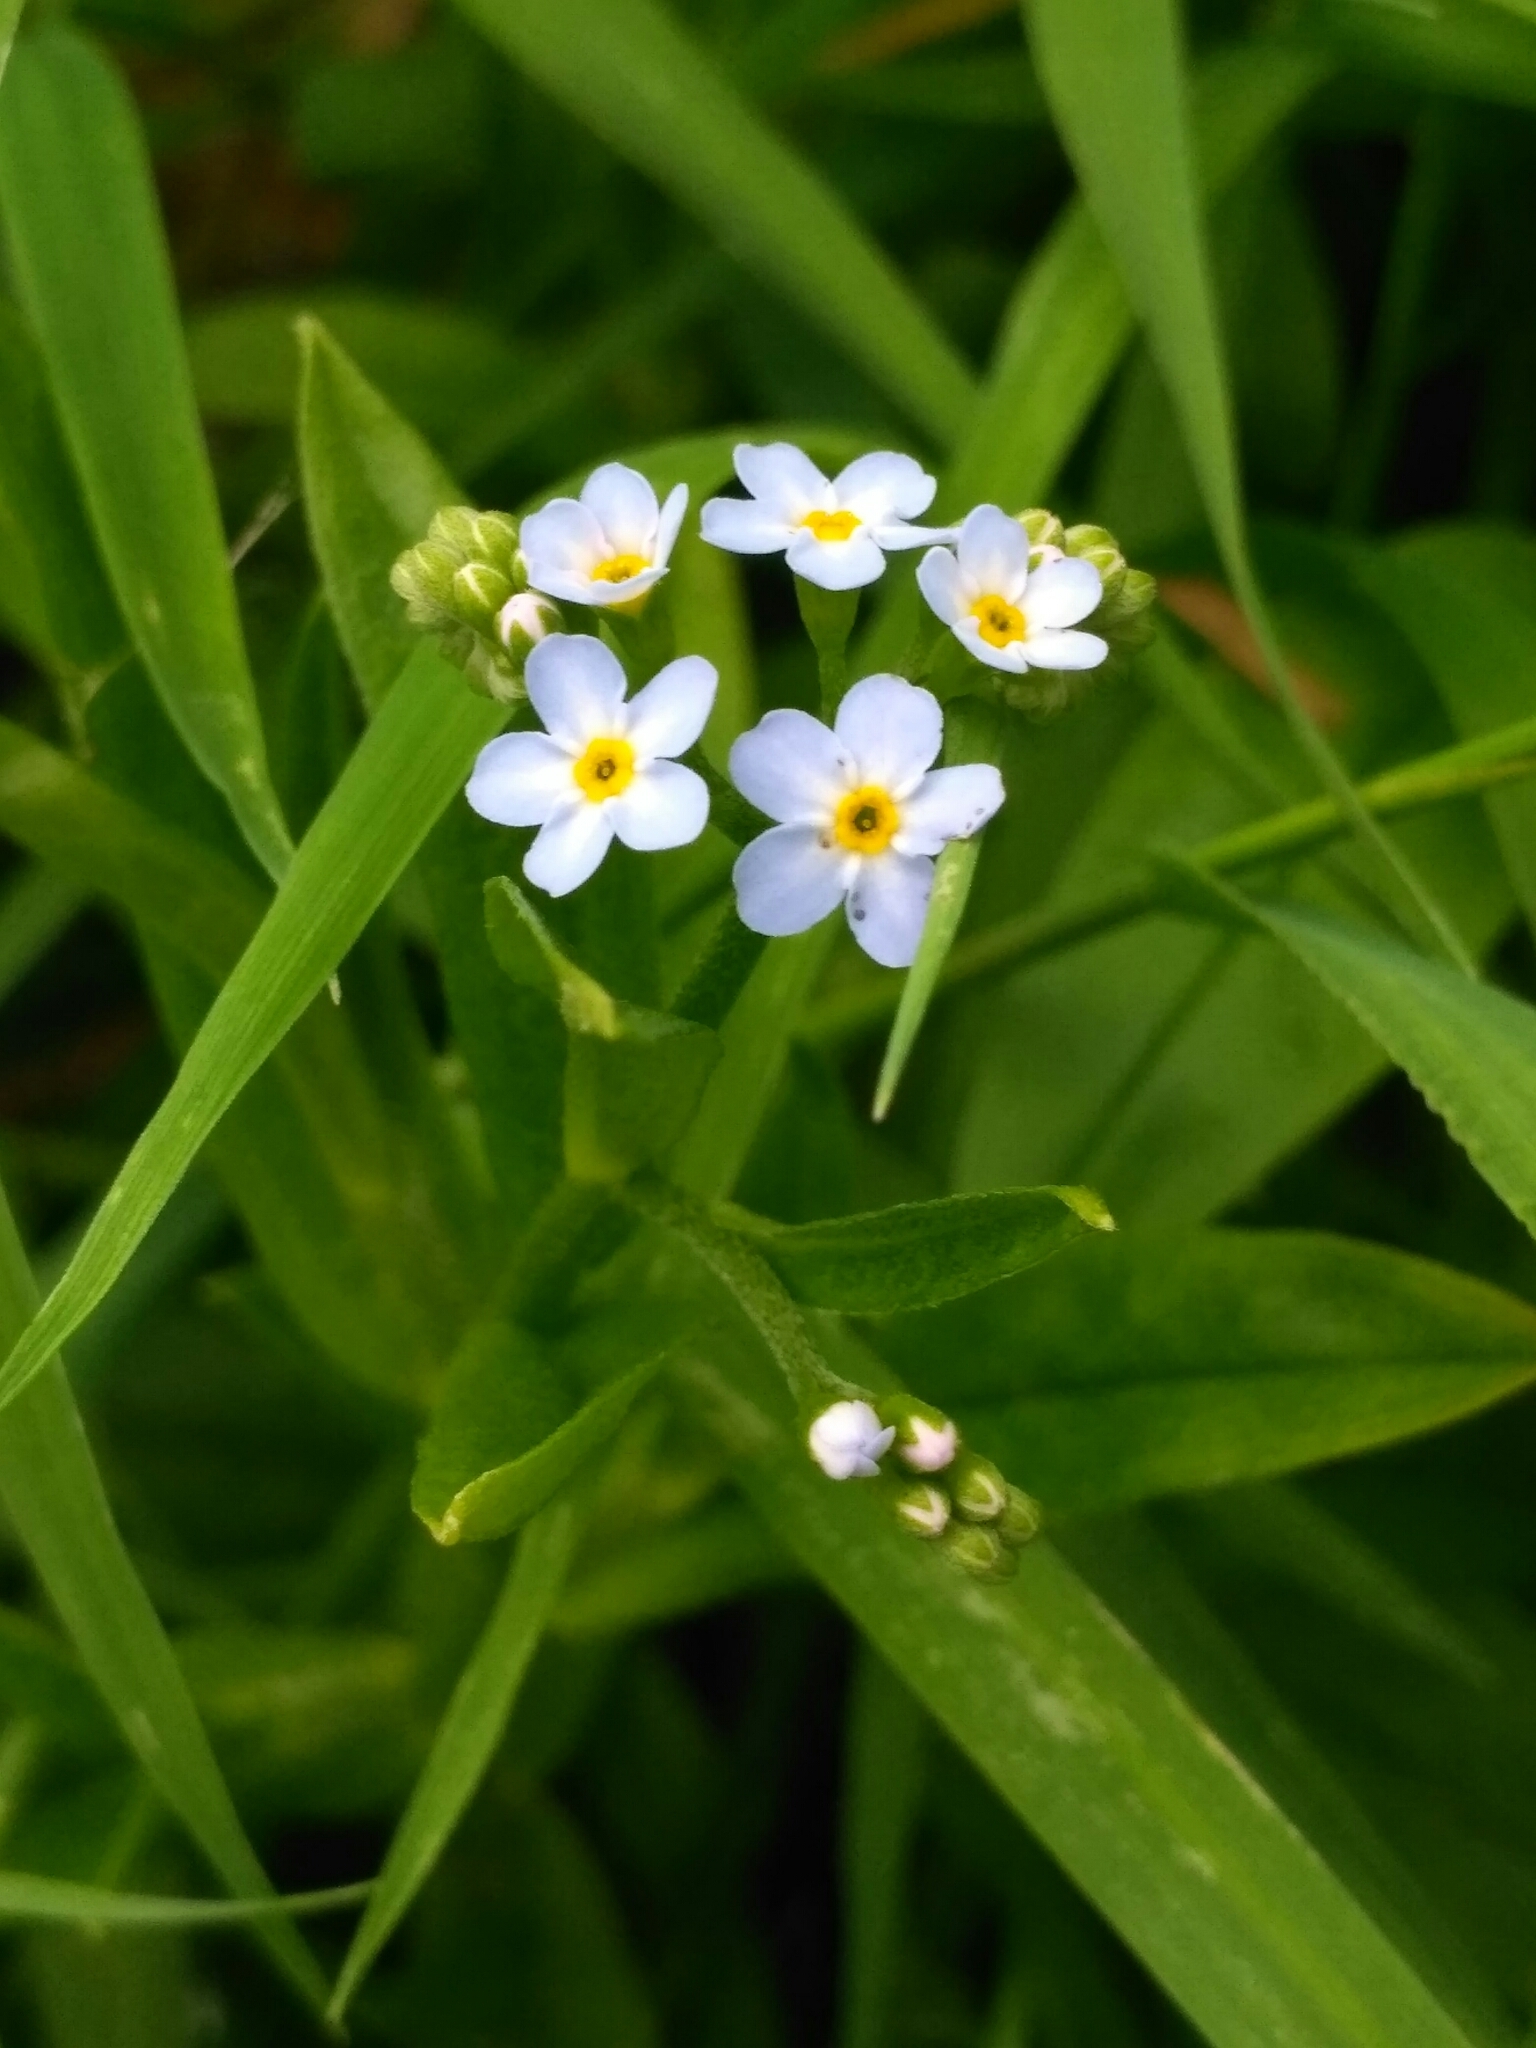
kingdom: Plantae
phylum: Tracheophyta
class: Magnoliopsida
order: Boraginales
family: Boraginaceae
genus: Myosotis
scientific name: Myosotis scorpioides
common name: Water forget-me-not
